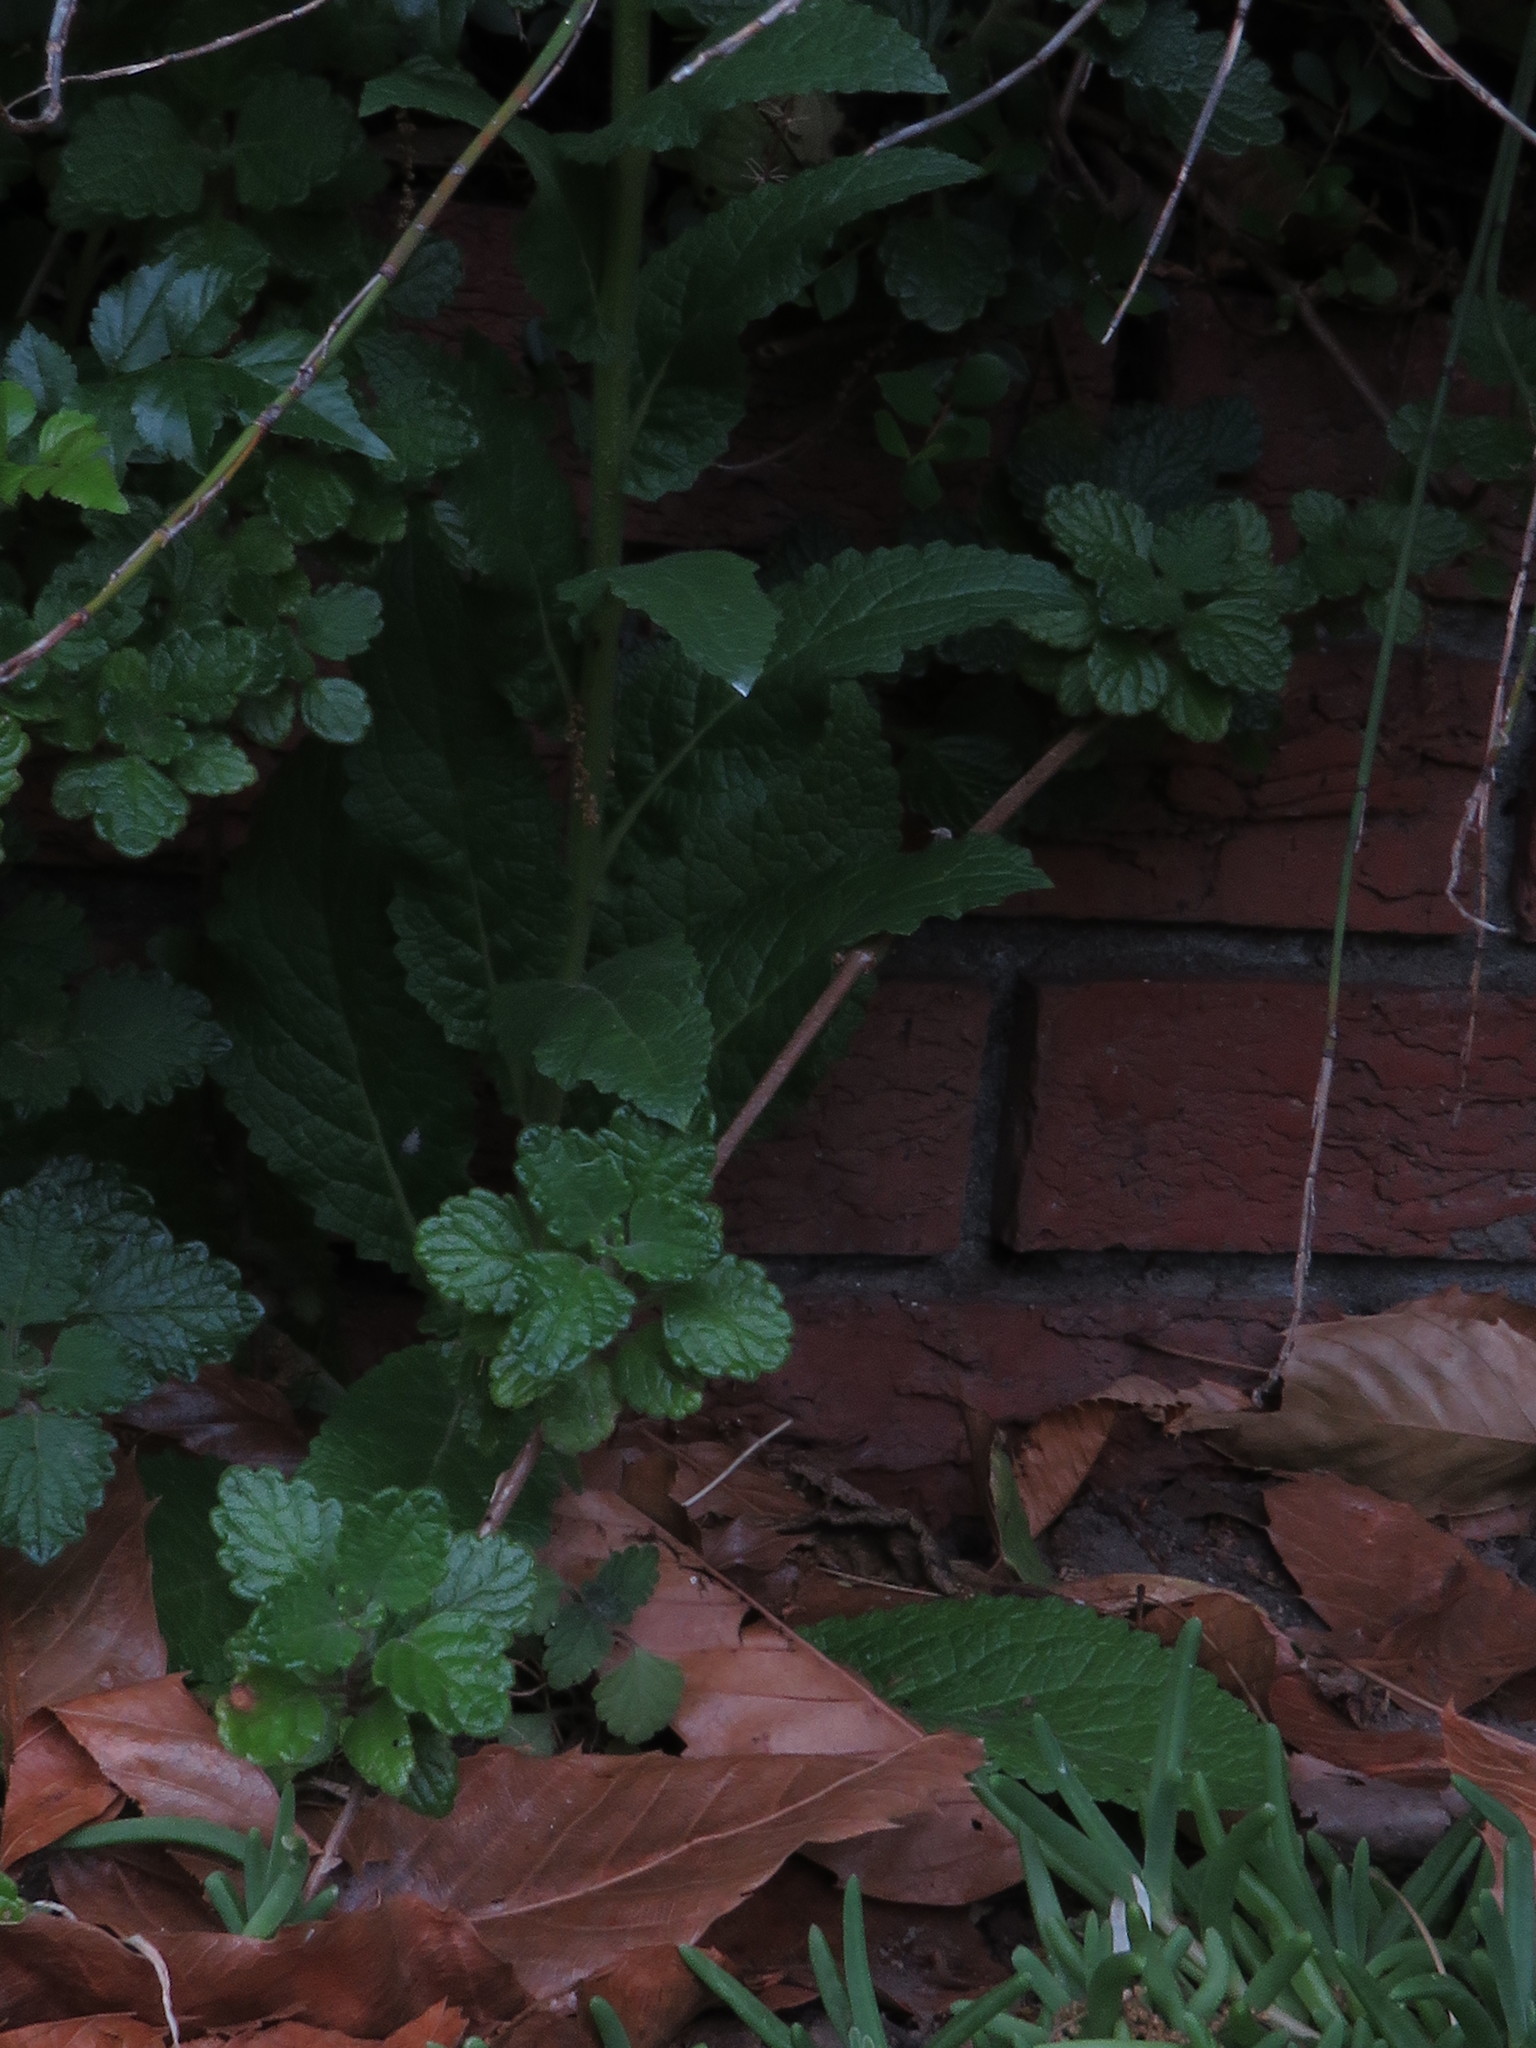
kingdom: Plantae
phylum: Tracheophyta
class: Magnoliopsida
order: Lamiales
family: Scrophulariaceae
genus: Verbascum
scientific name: Verbascum virgatum
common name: Twiggy mullein
